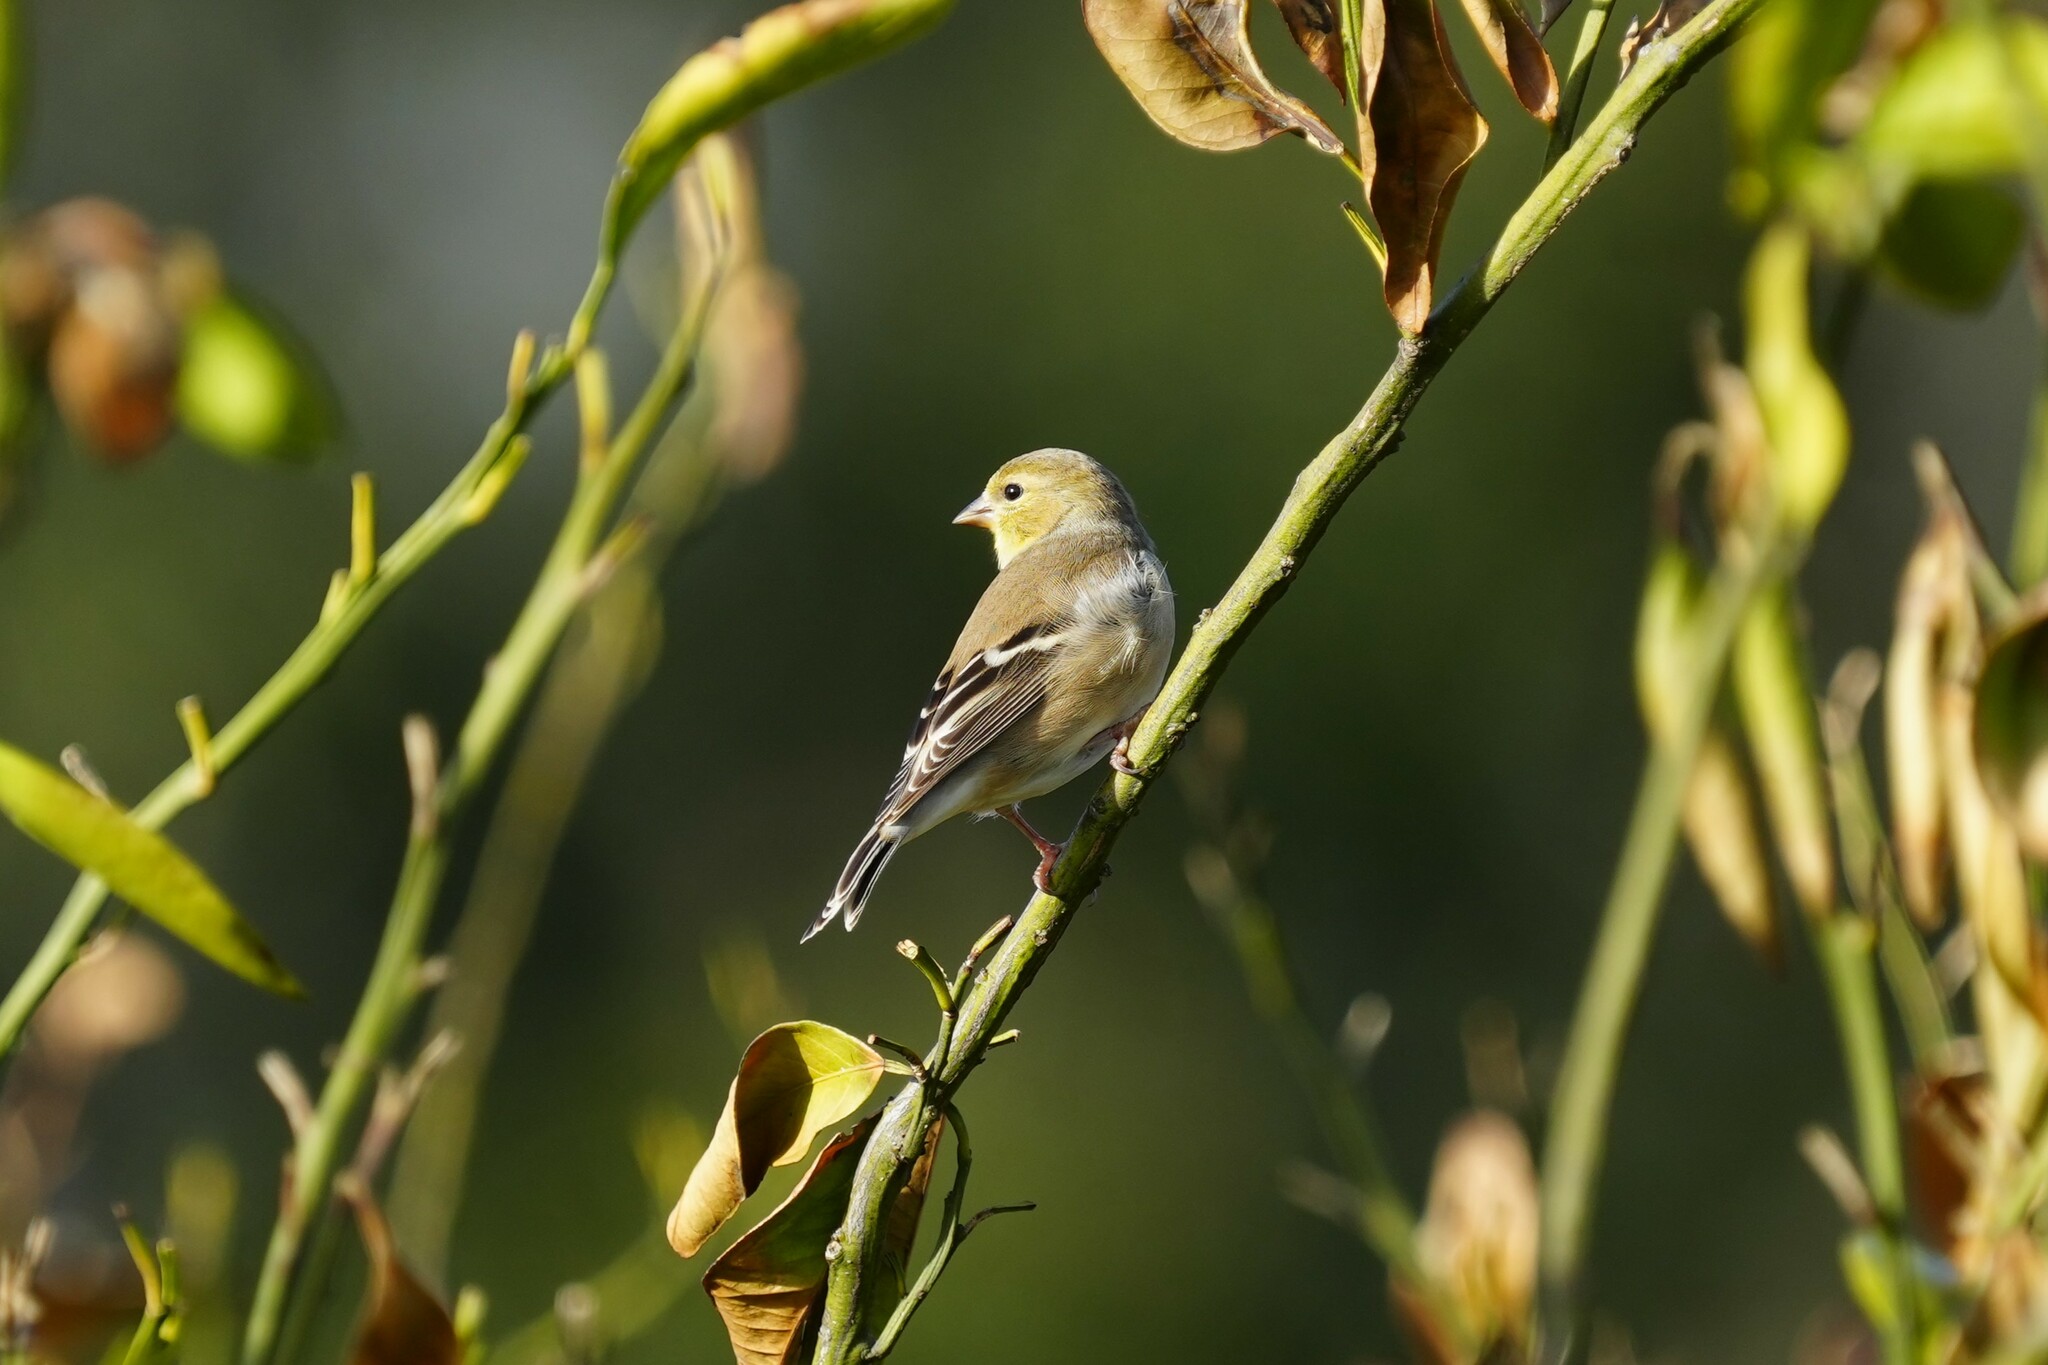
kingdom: Animalia
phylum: Chordata
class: Aves
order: Passeriformes
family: Fringillidae
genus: Spinus
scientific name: Spinus tristis
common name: American goldfinch
